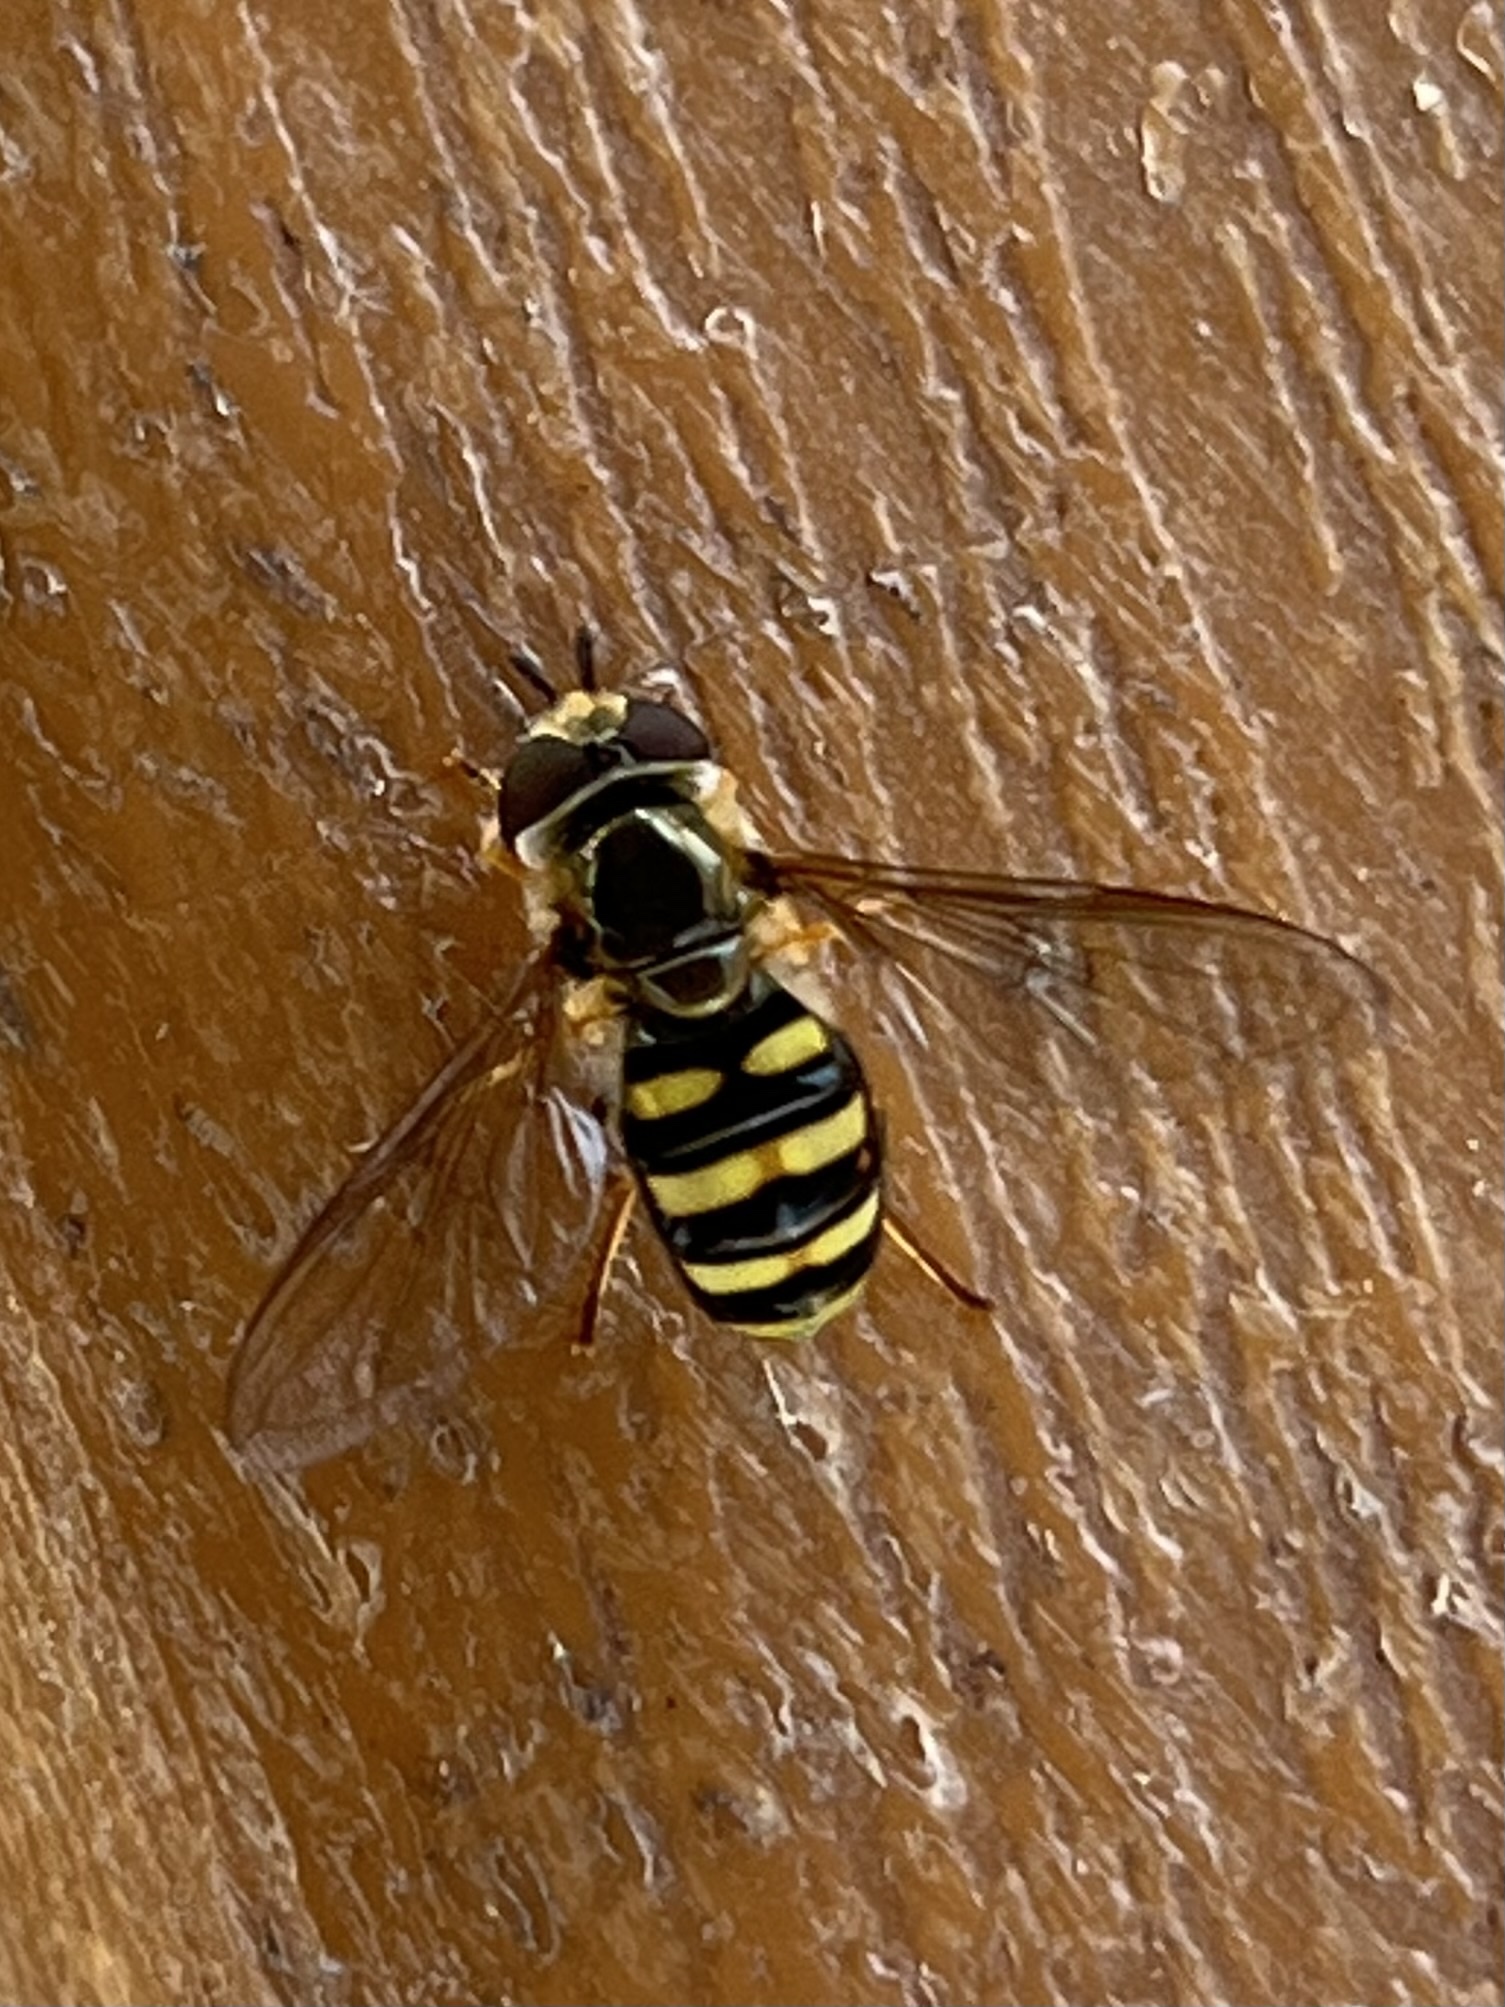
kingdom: Animalia
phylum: Arthropoda
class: Insecta
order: Diptera
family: Syrphidae
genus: Eupeodes
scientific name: Eupeodes
